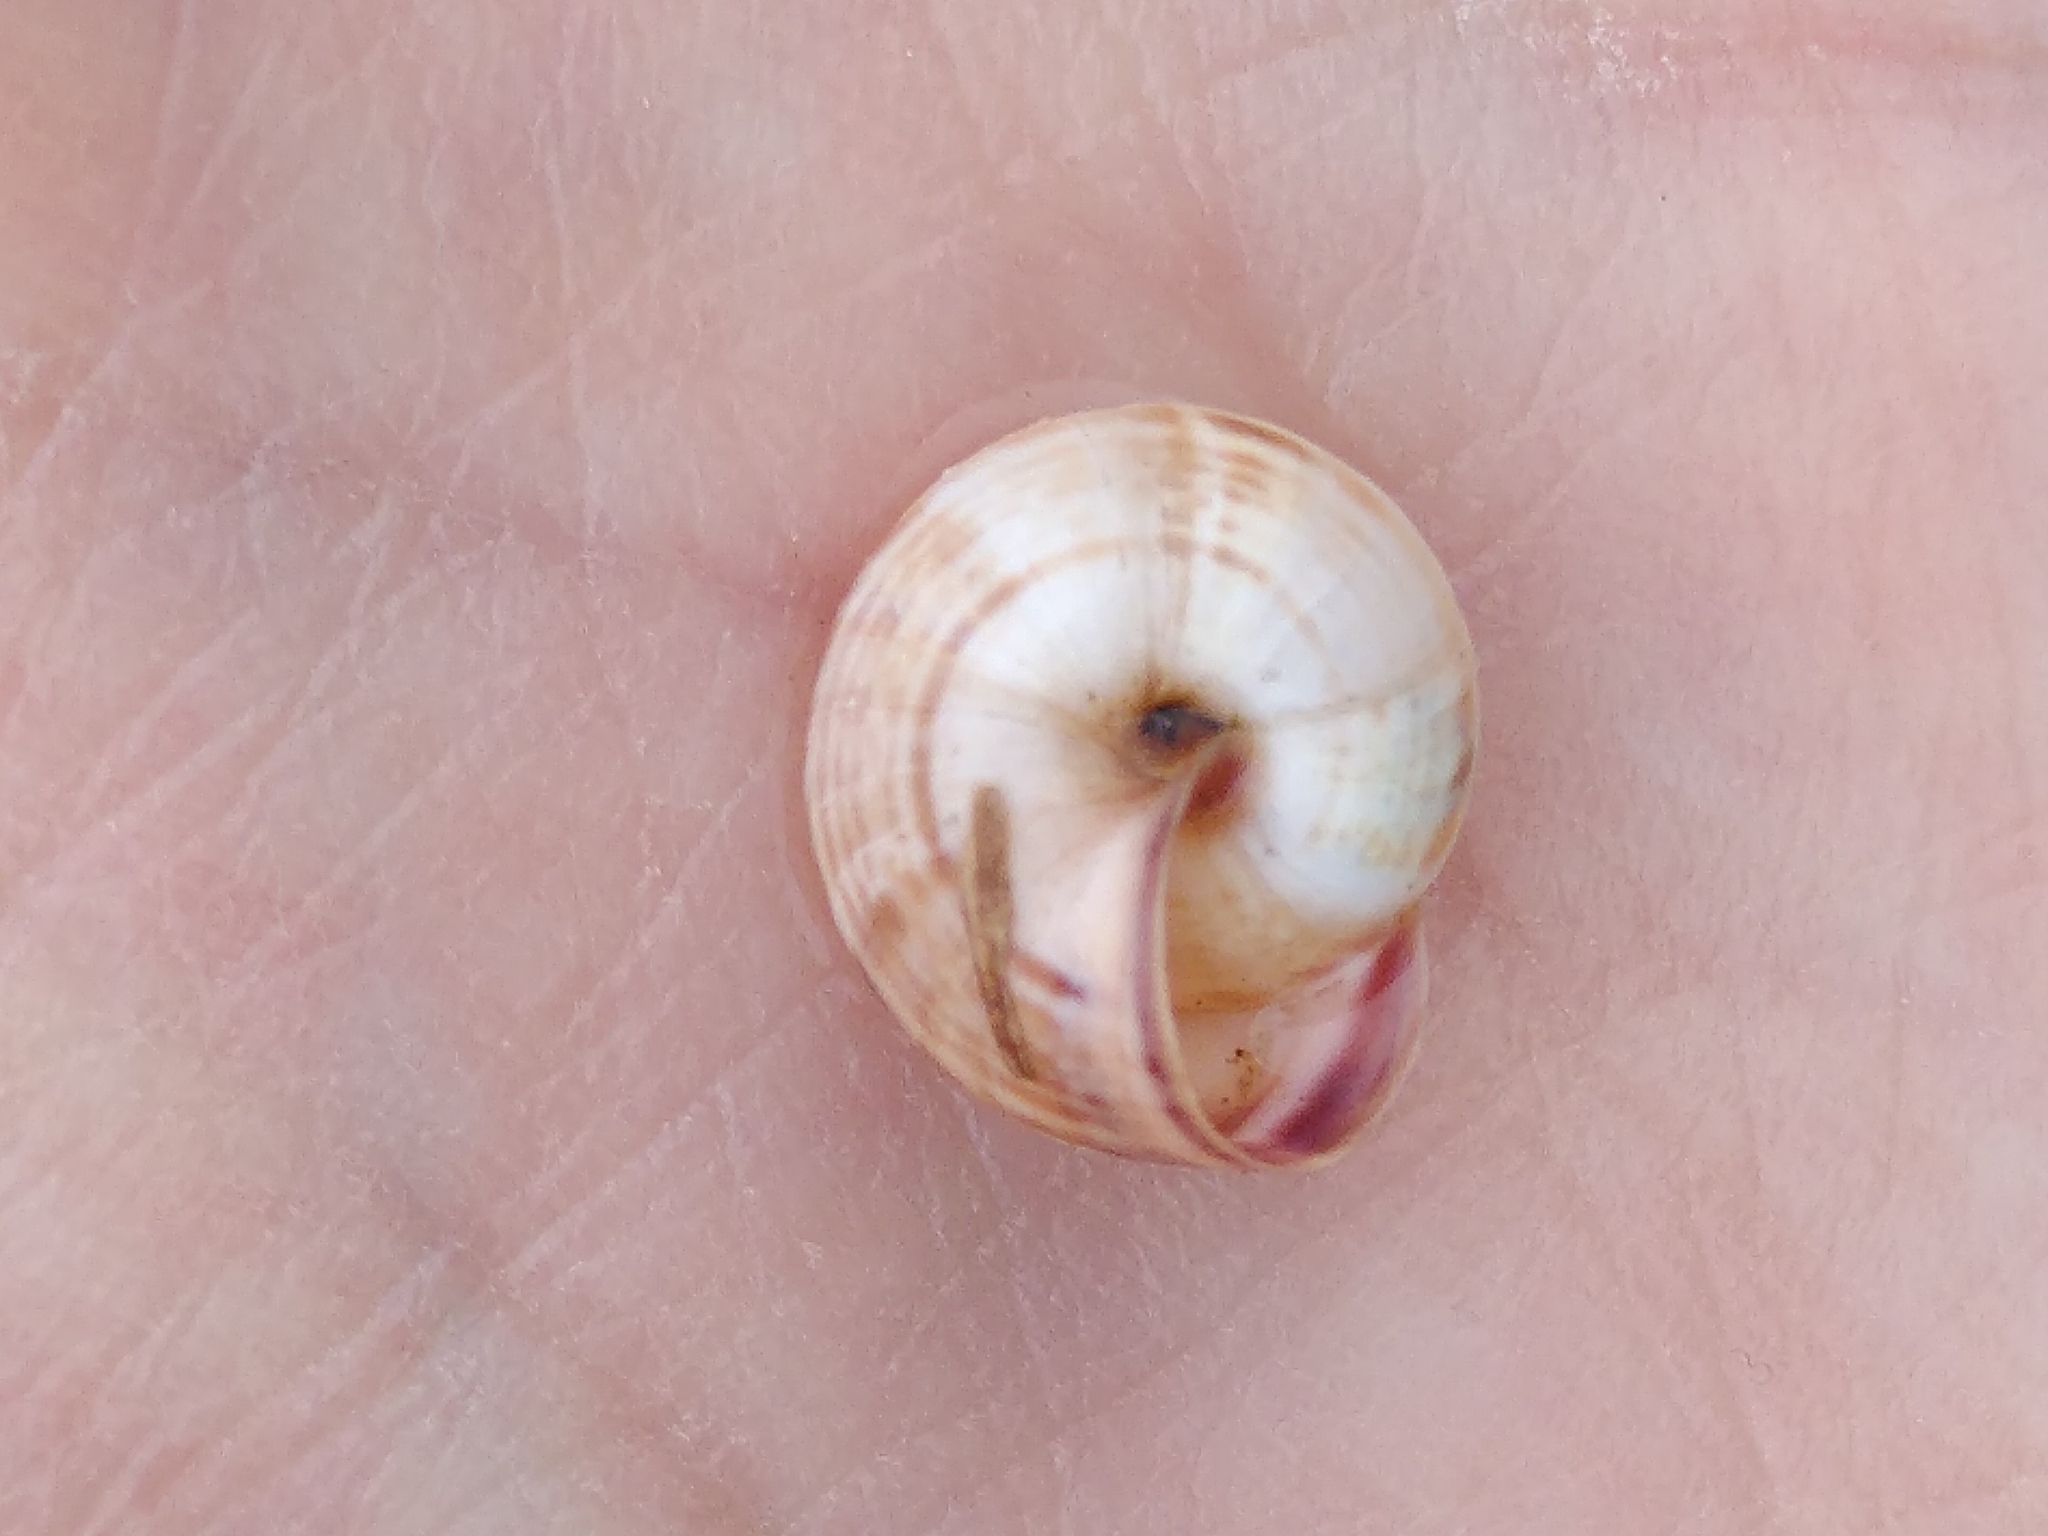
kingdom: Animalia
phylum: Mollusca
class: Gastropoda
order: Stylommatophora
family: Geomitridae
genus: Cernuella
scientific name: Cernuella virgata
